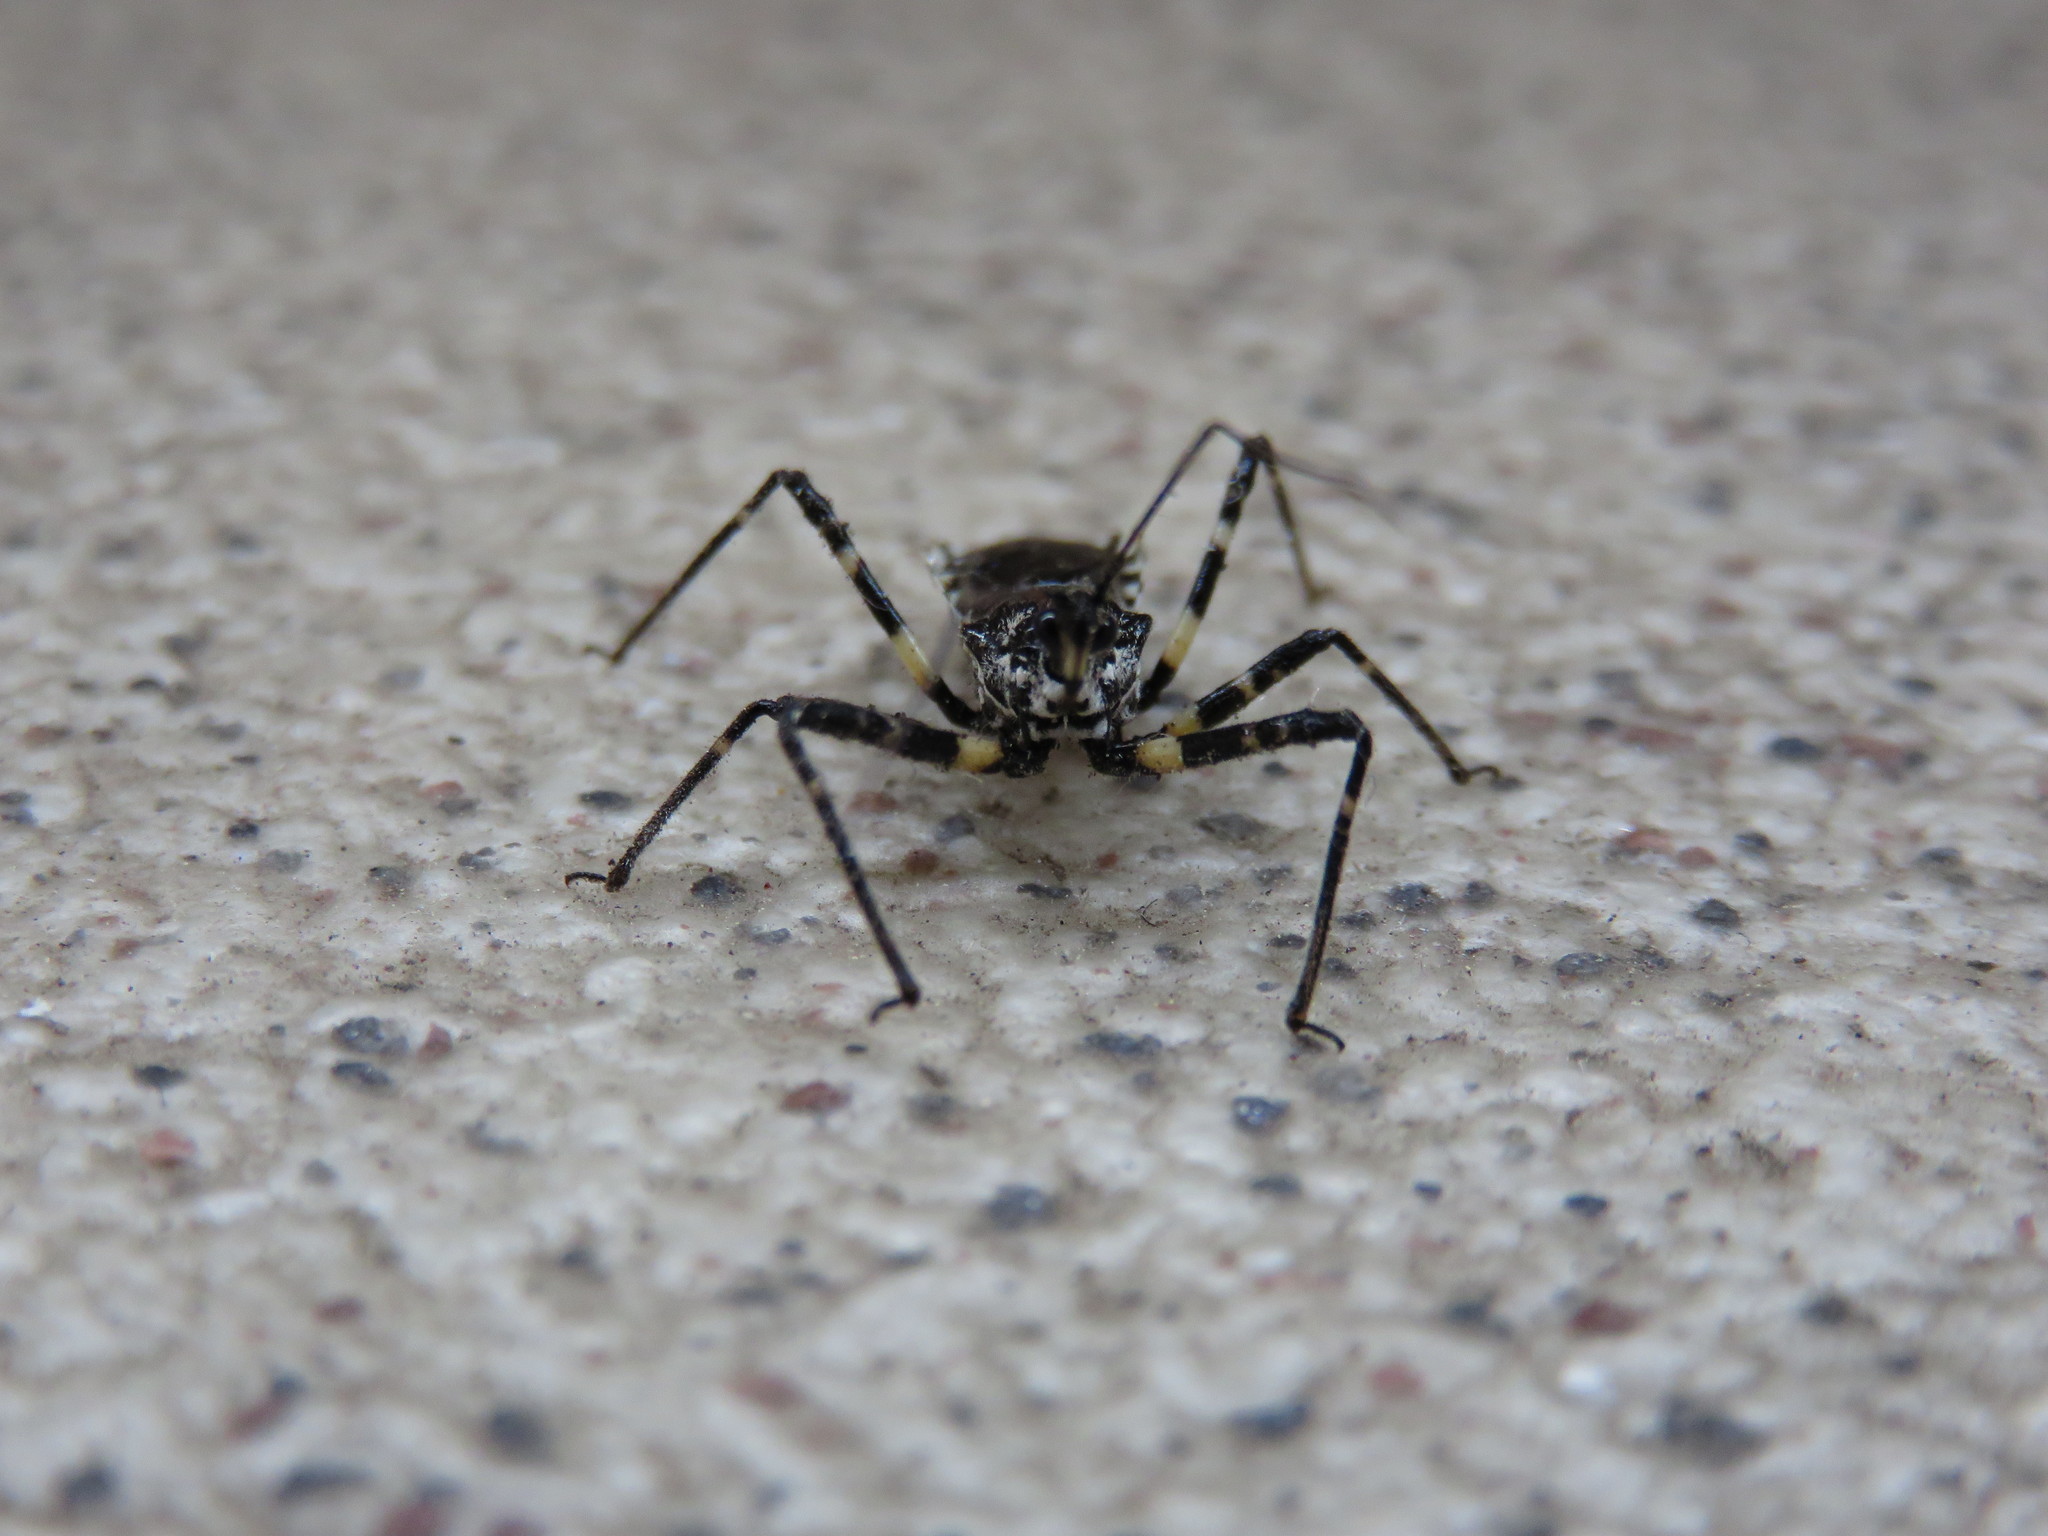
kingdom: Animalia
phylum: Arthropoda
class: Insecta
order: Hemiptera
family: Reduviidae
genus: Sphedanolestes
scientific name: Sphedanolestes impressicollis
